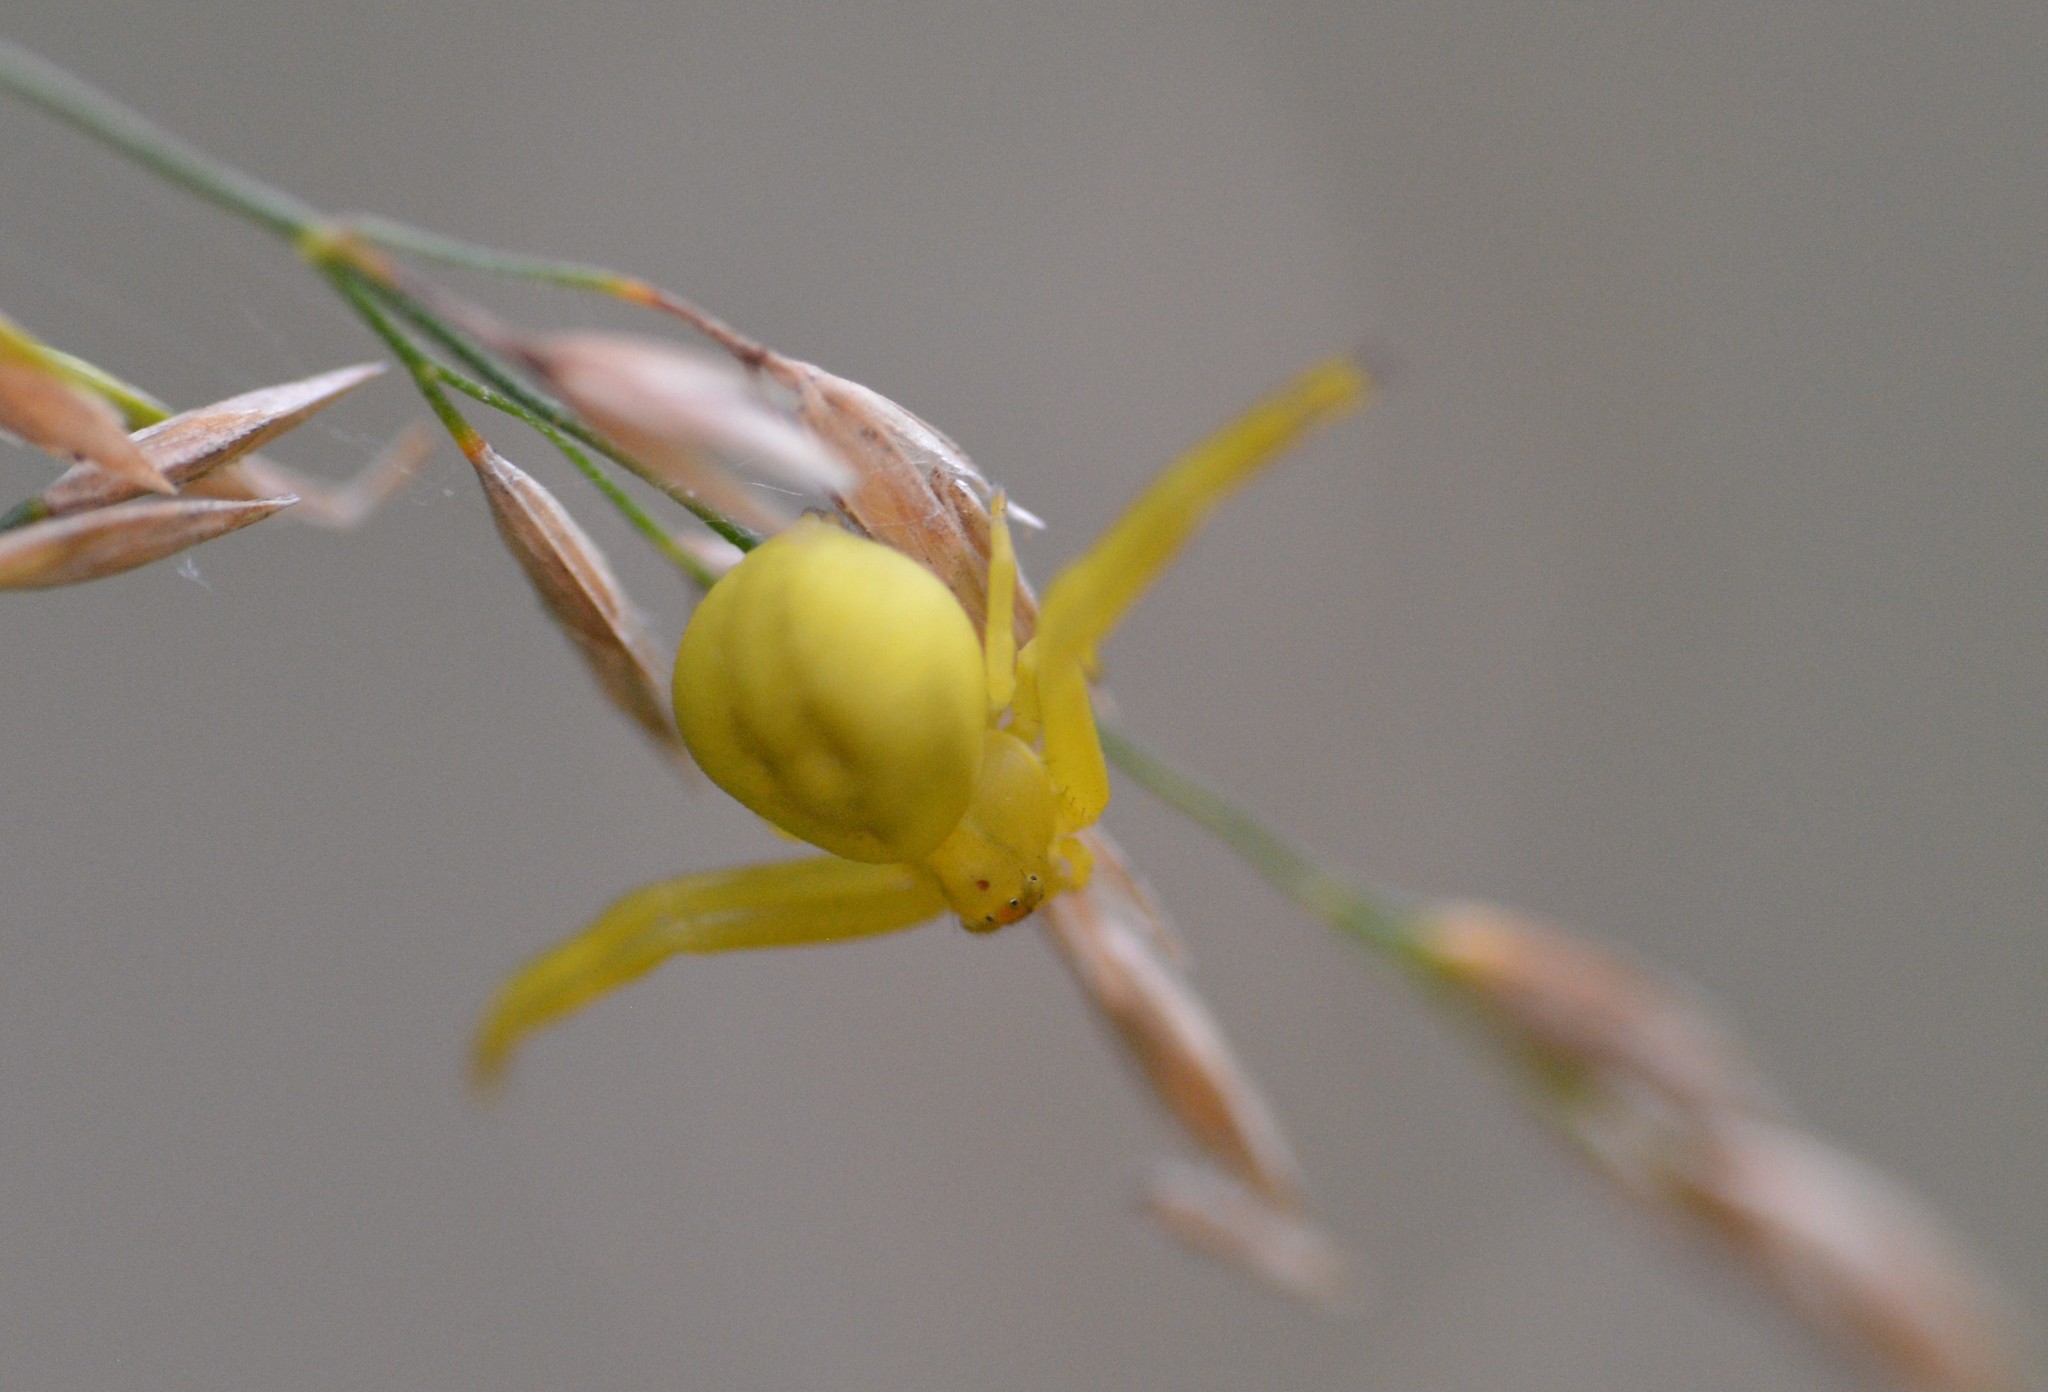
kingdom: Animalia
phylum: Arthropoda
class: Arachnida
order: Araneae
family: Thomisidae
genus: Misumena
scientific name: Misumena vatia
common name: Goldenrod crab spider
